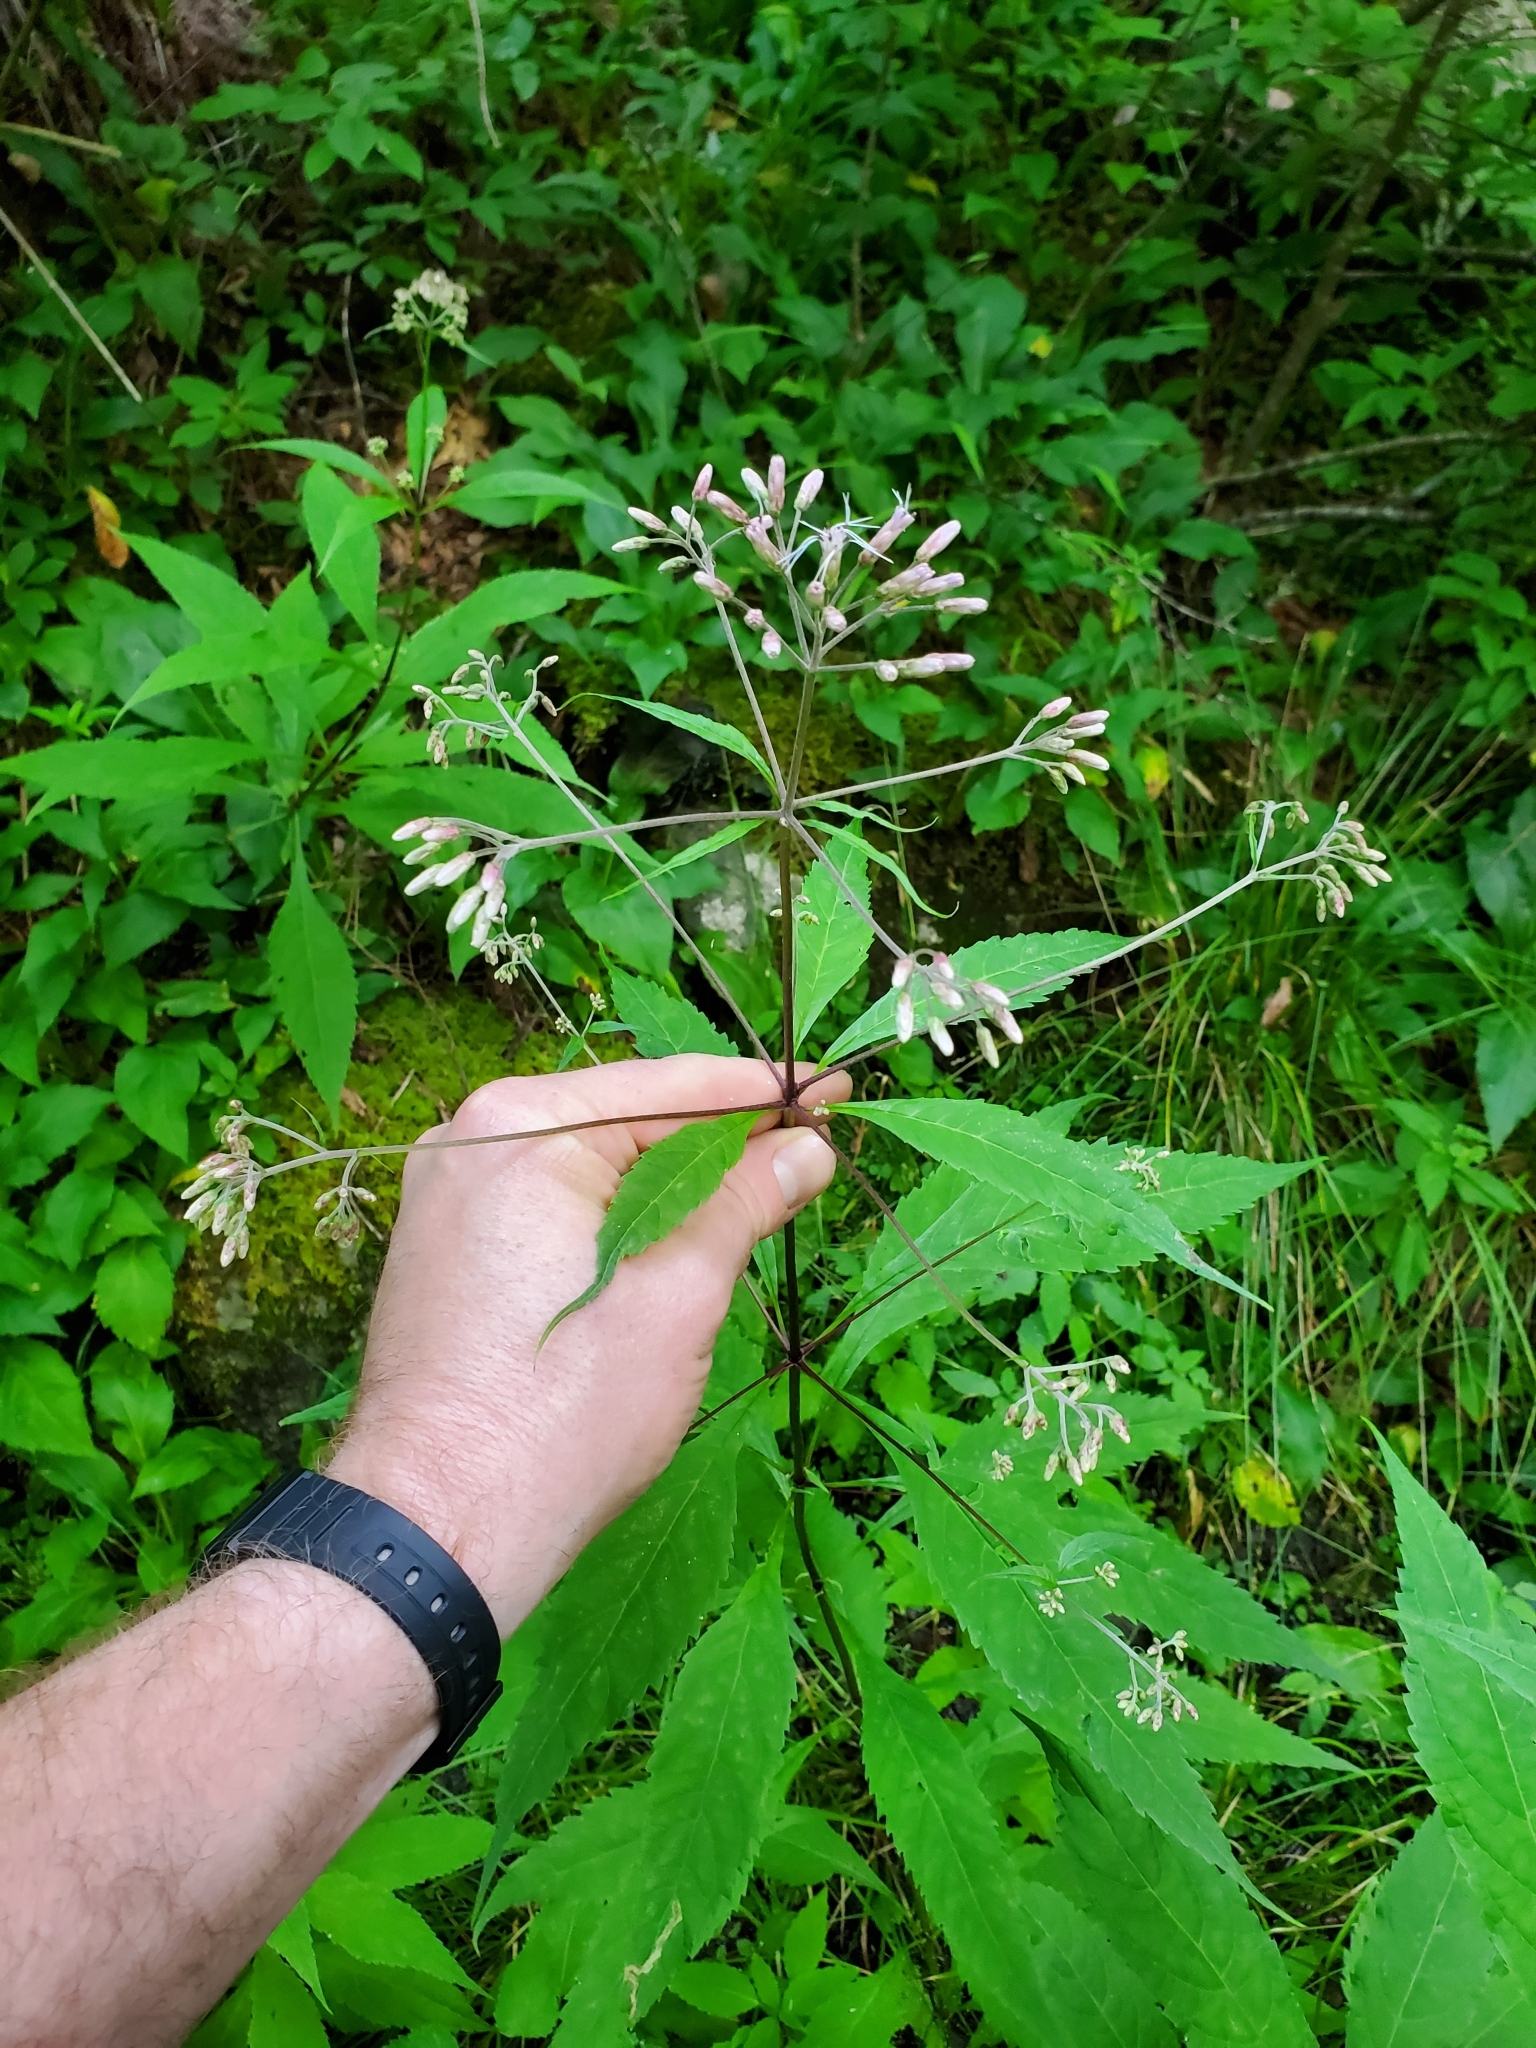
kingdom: Plantae
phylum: Tracheophyta
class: Magnoliopsida
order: Asterales
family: Asteraceae
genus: Eutrochium
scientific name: Eutrochium purpureum
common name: Gravelroot
